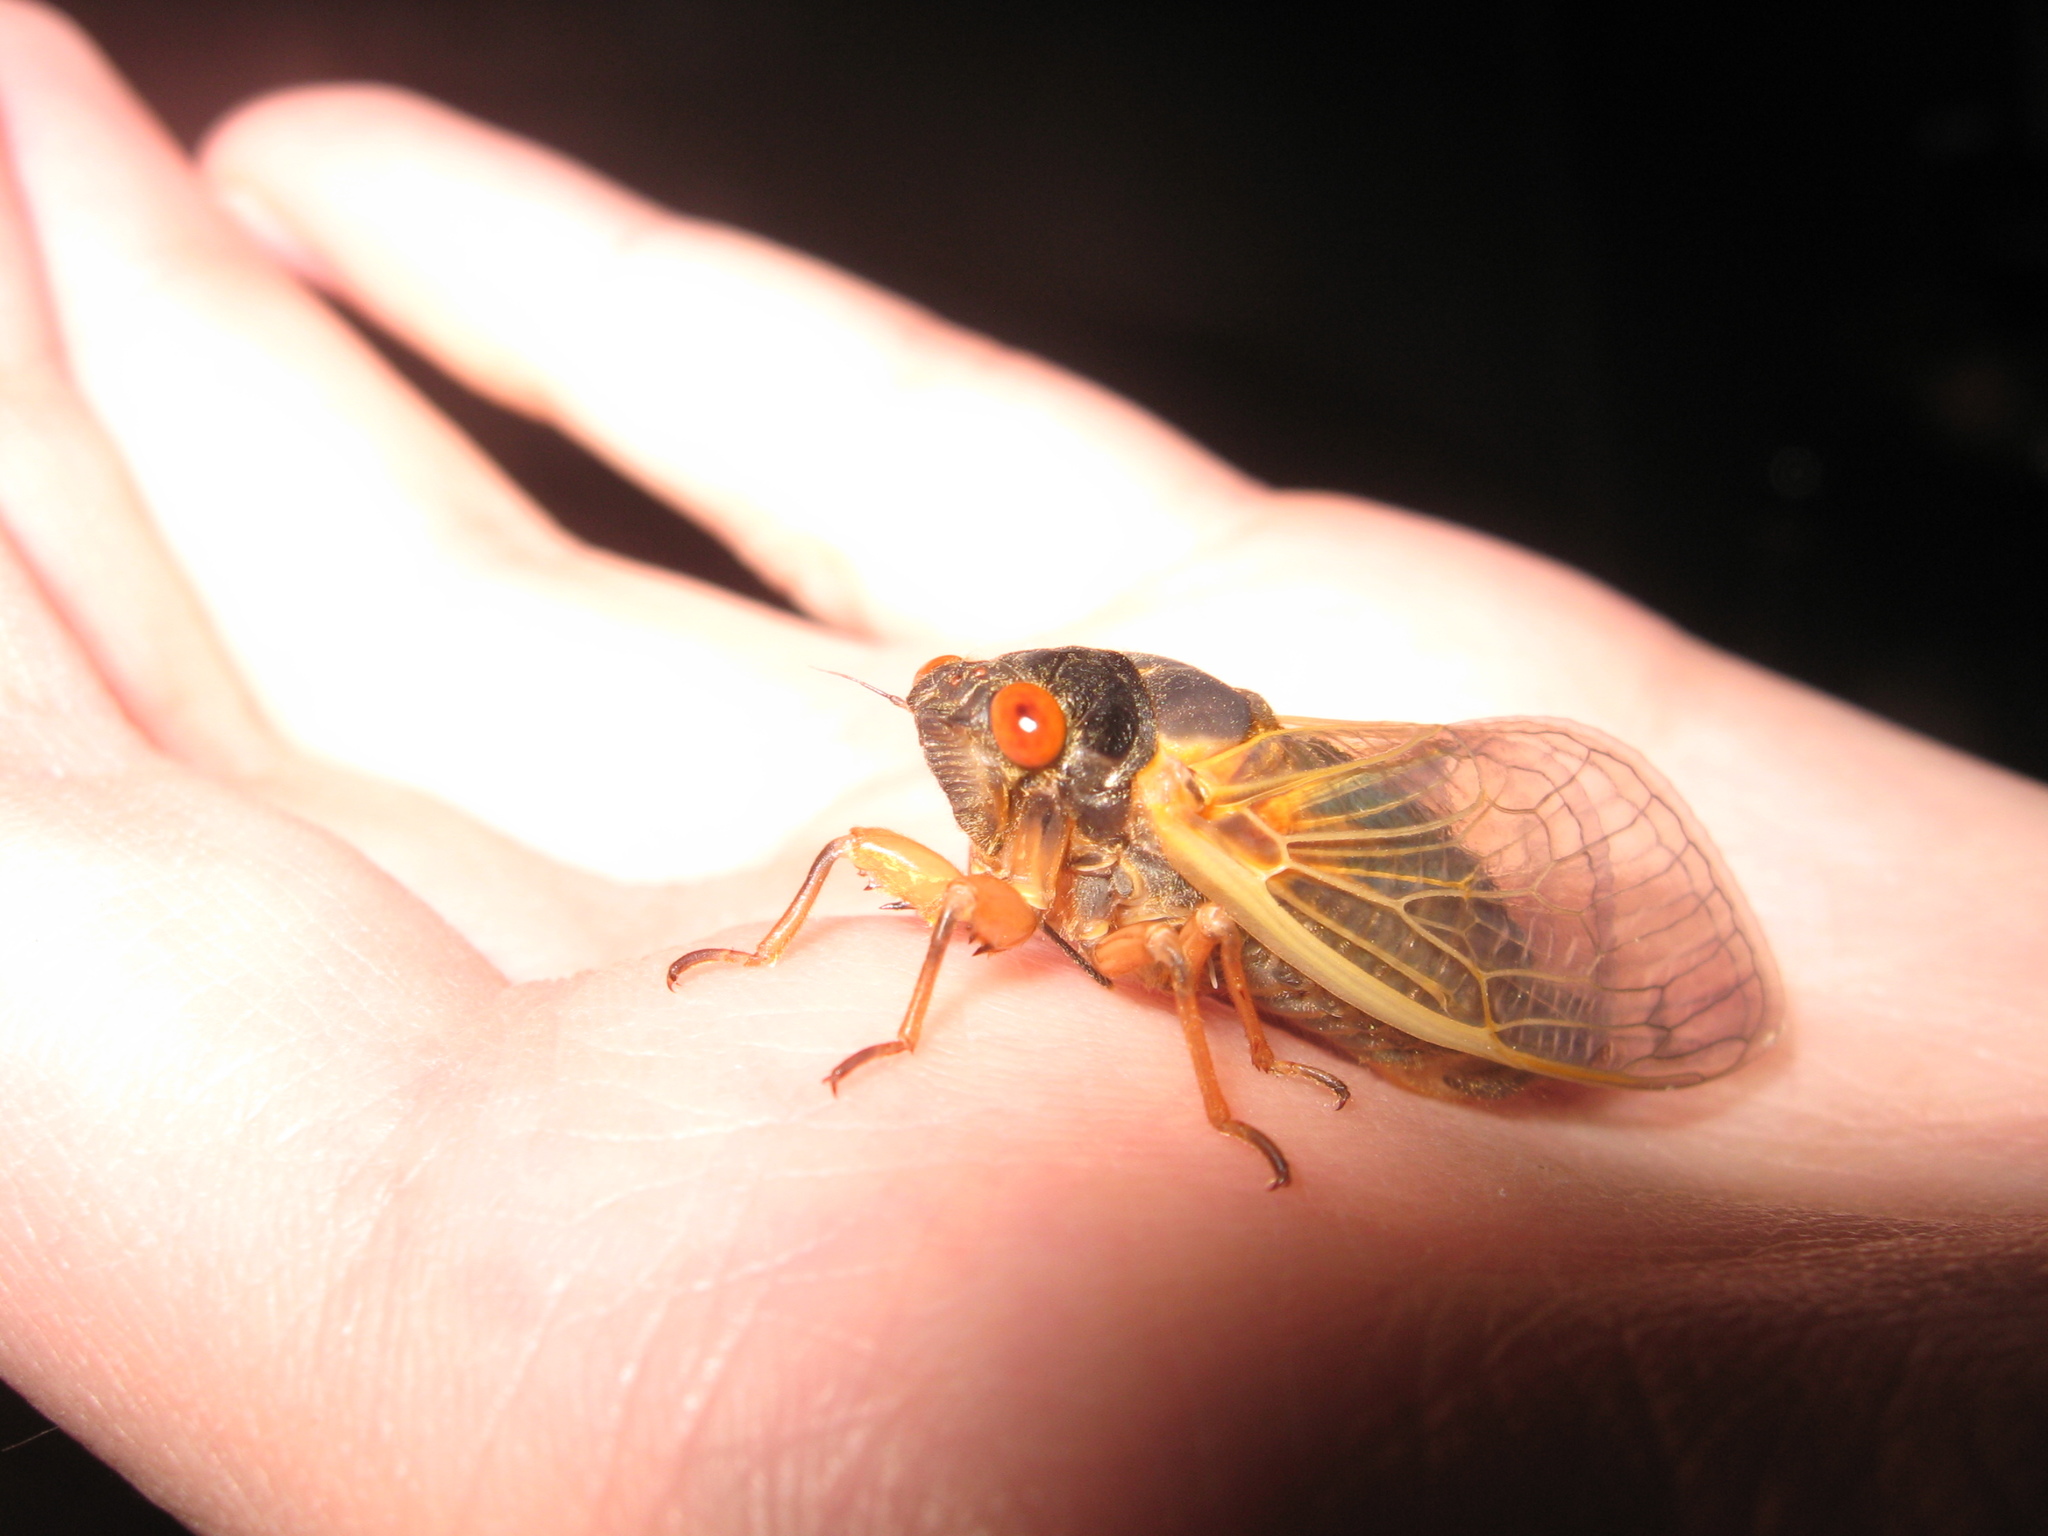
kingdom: Animalia
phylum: Arthropoda
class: Insecta
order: Hemiptera
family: Cicadidae
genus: Magicicada
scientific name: Magicicada
